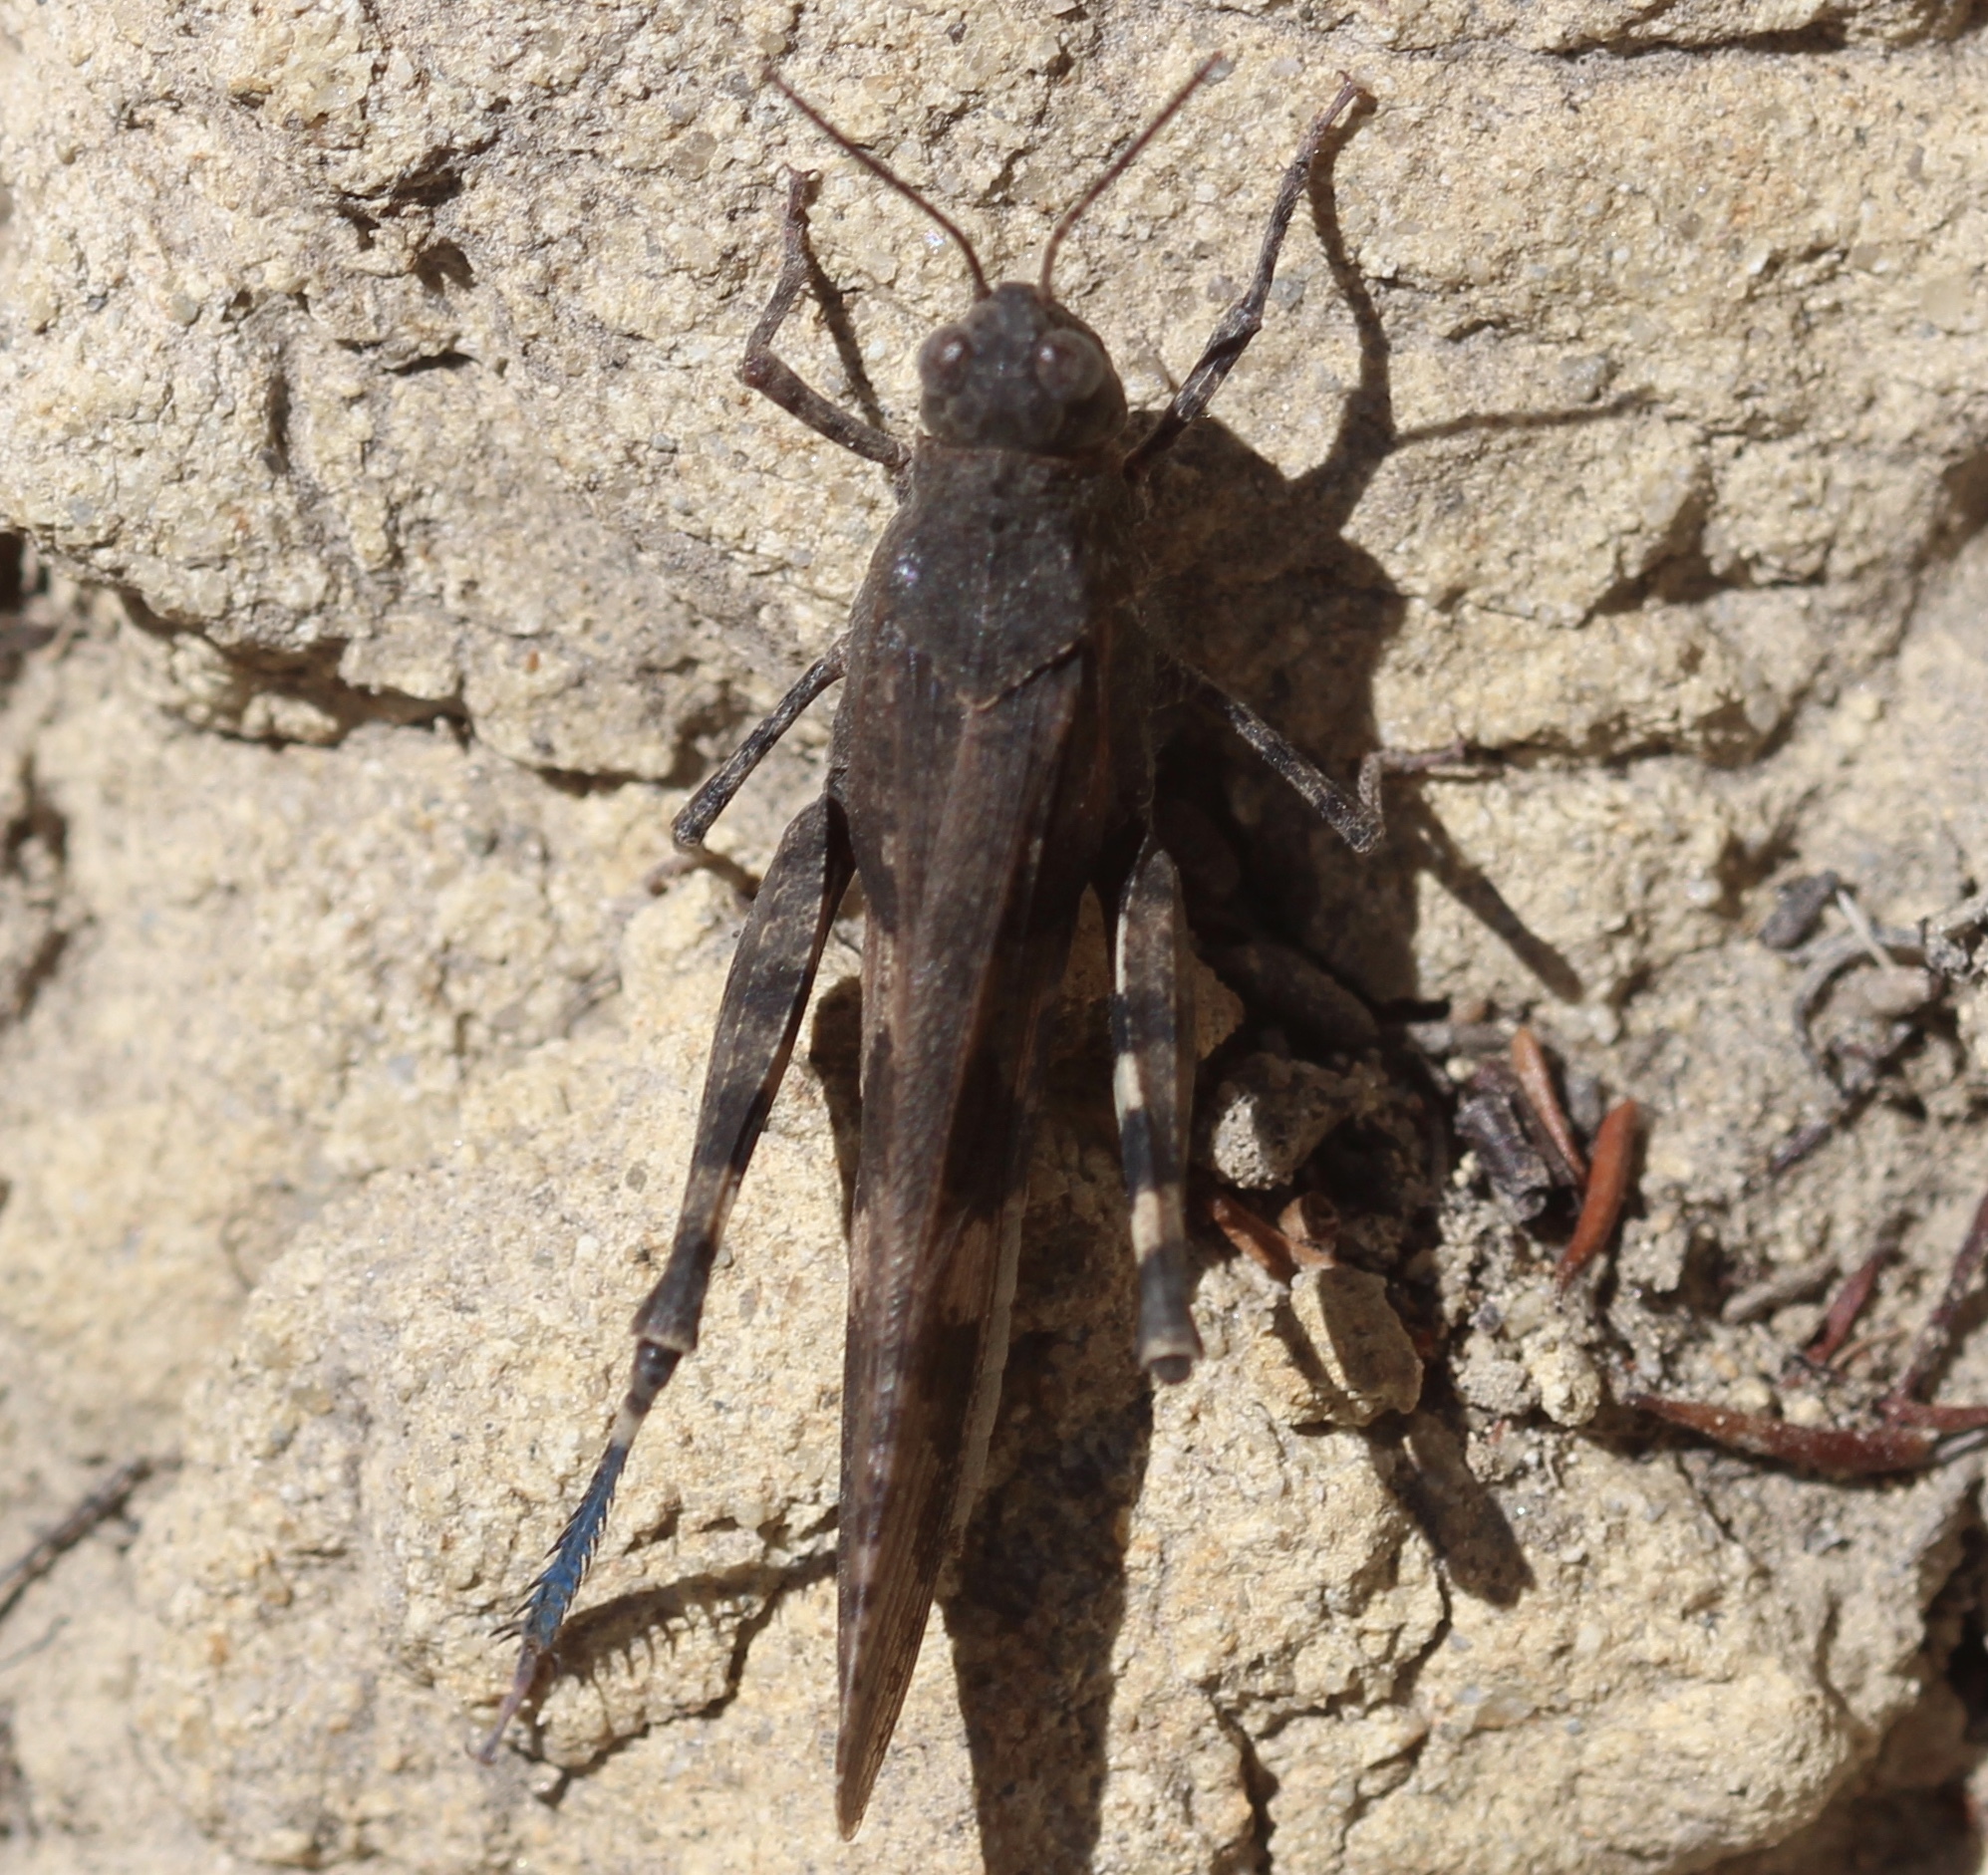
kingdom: Animalia
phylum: Arthropoda
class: Insecta
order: Orthoptera
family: Acrididae
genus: Trimerotropis
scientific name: Trimerotropis fontana
